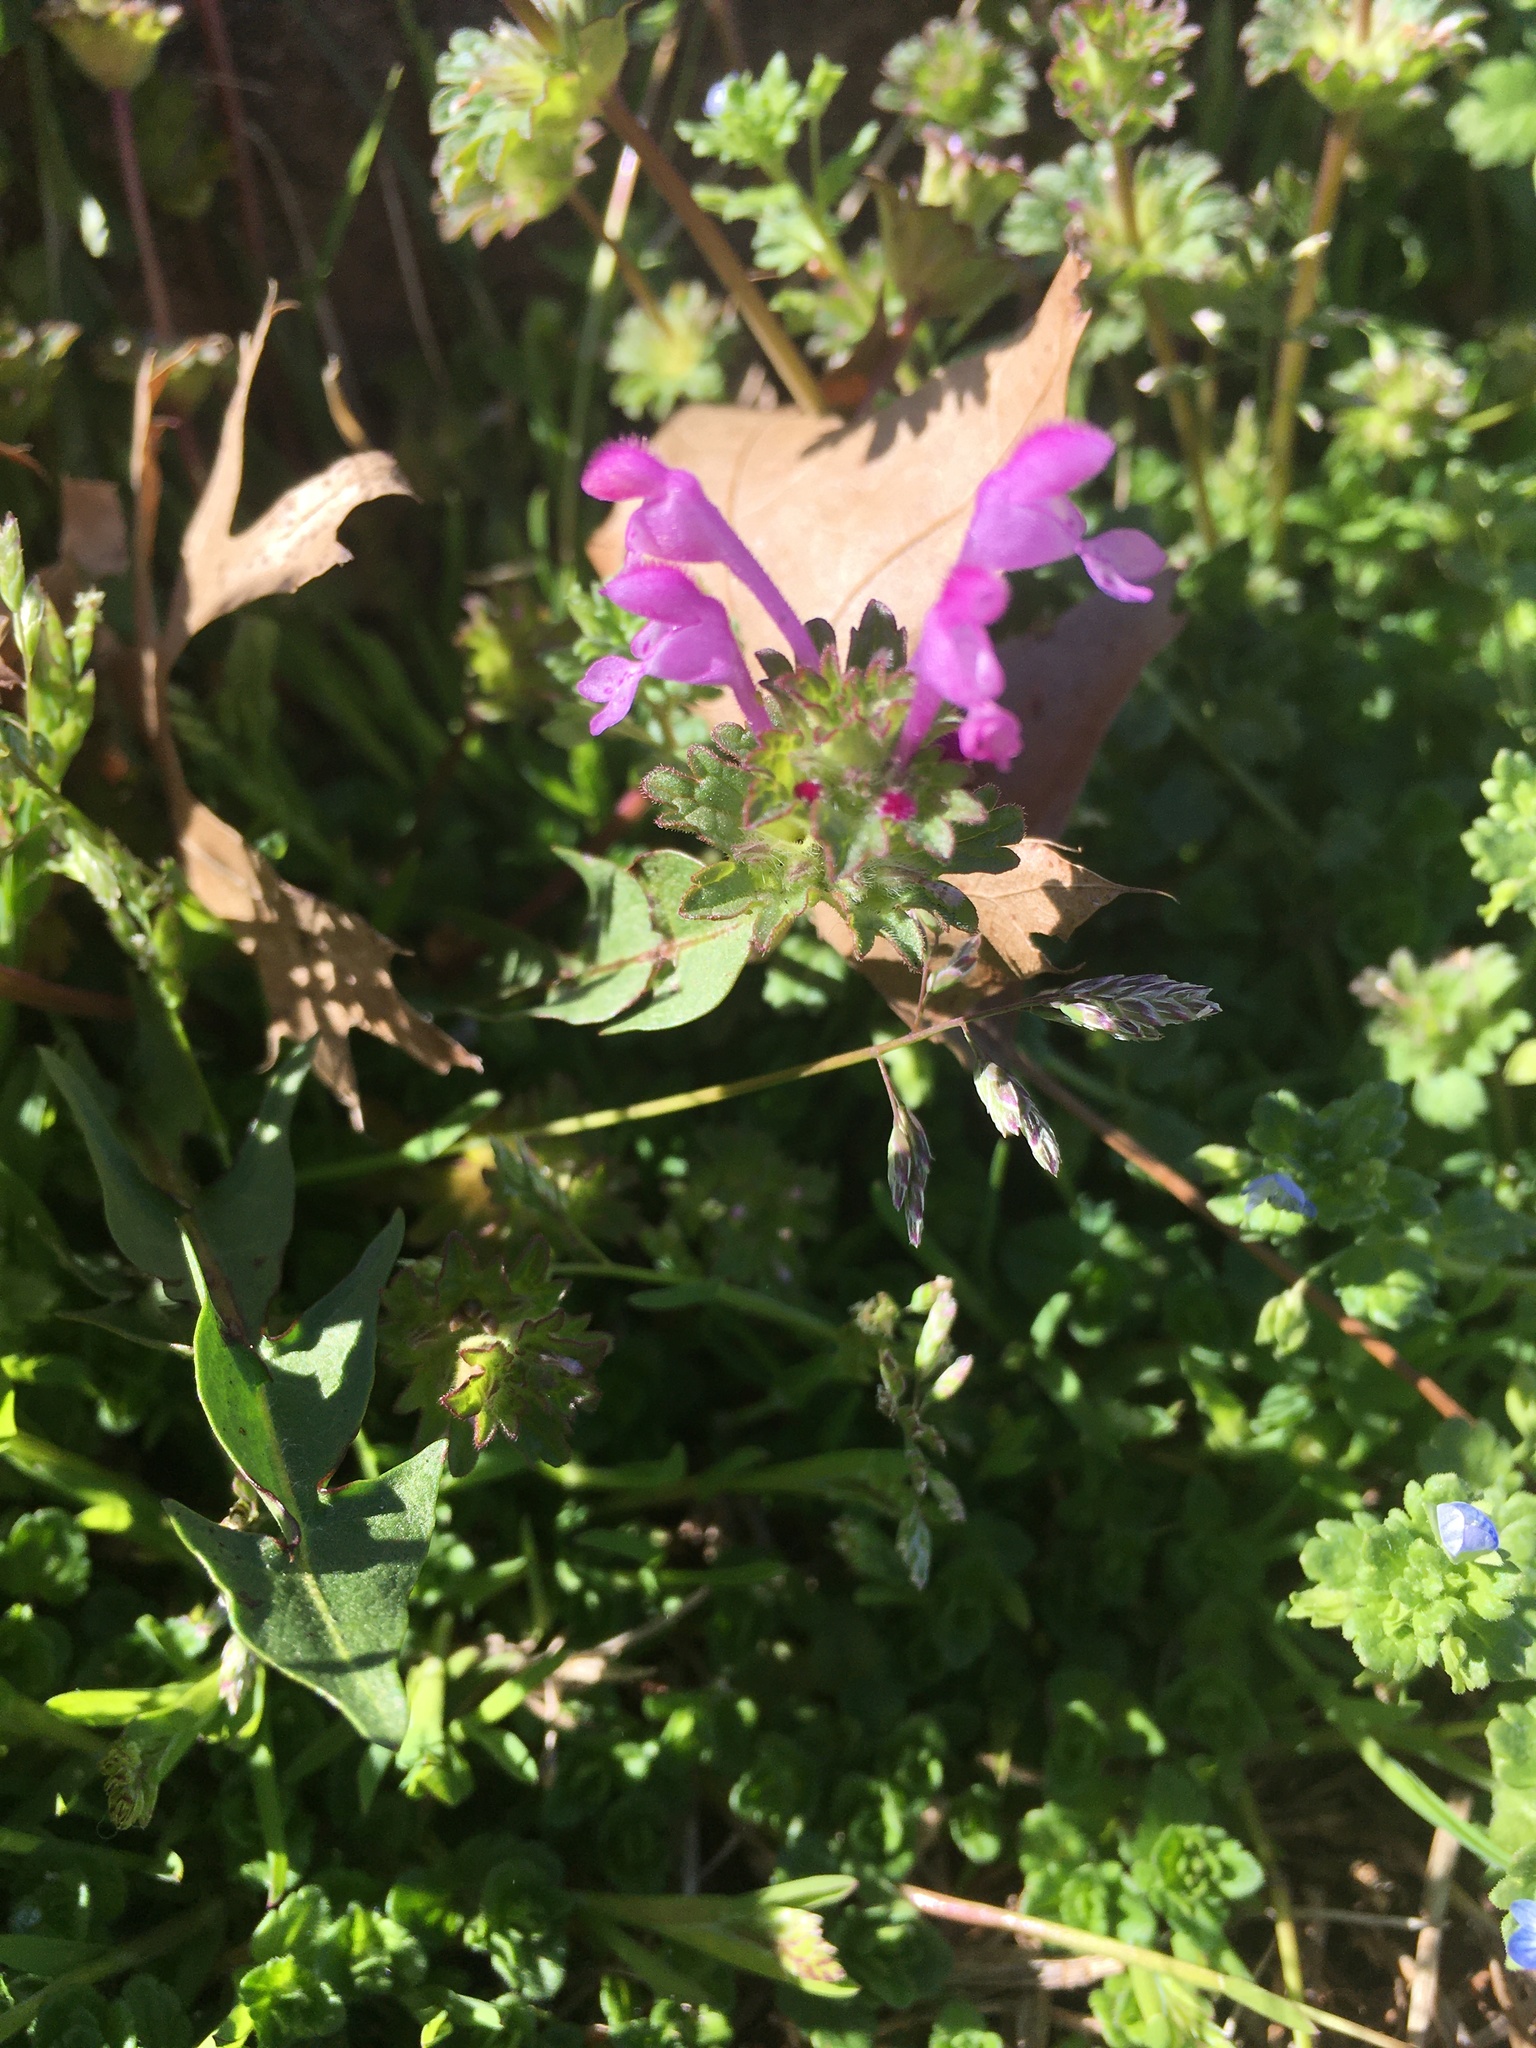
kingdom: Plantae
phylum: Tracheophyta
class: Magnoliopsida
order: Lamiales
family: Lamiaceae
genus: Lamium
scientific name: Lamium amplexicaule
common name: Henbit dead-nettle
